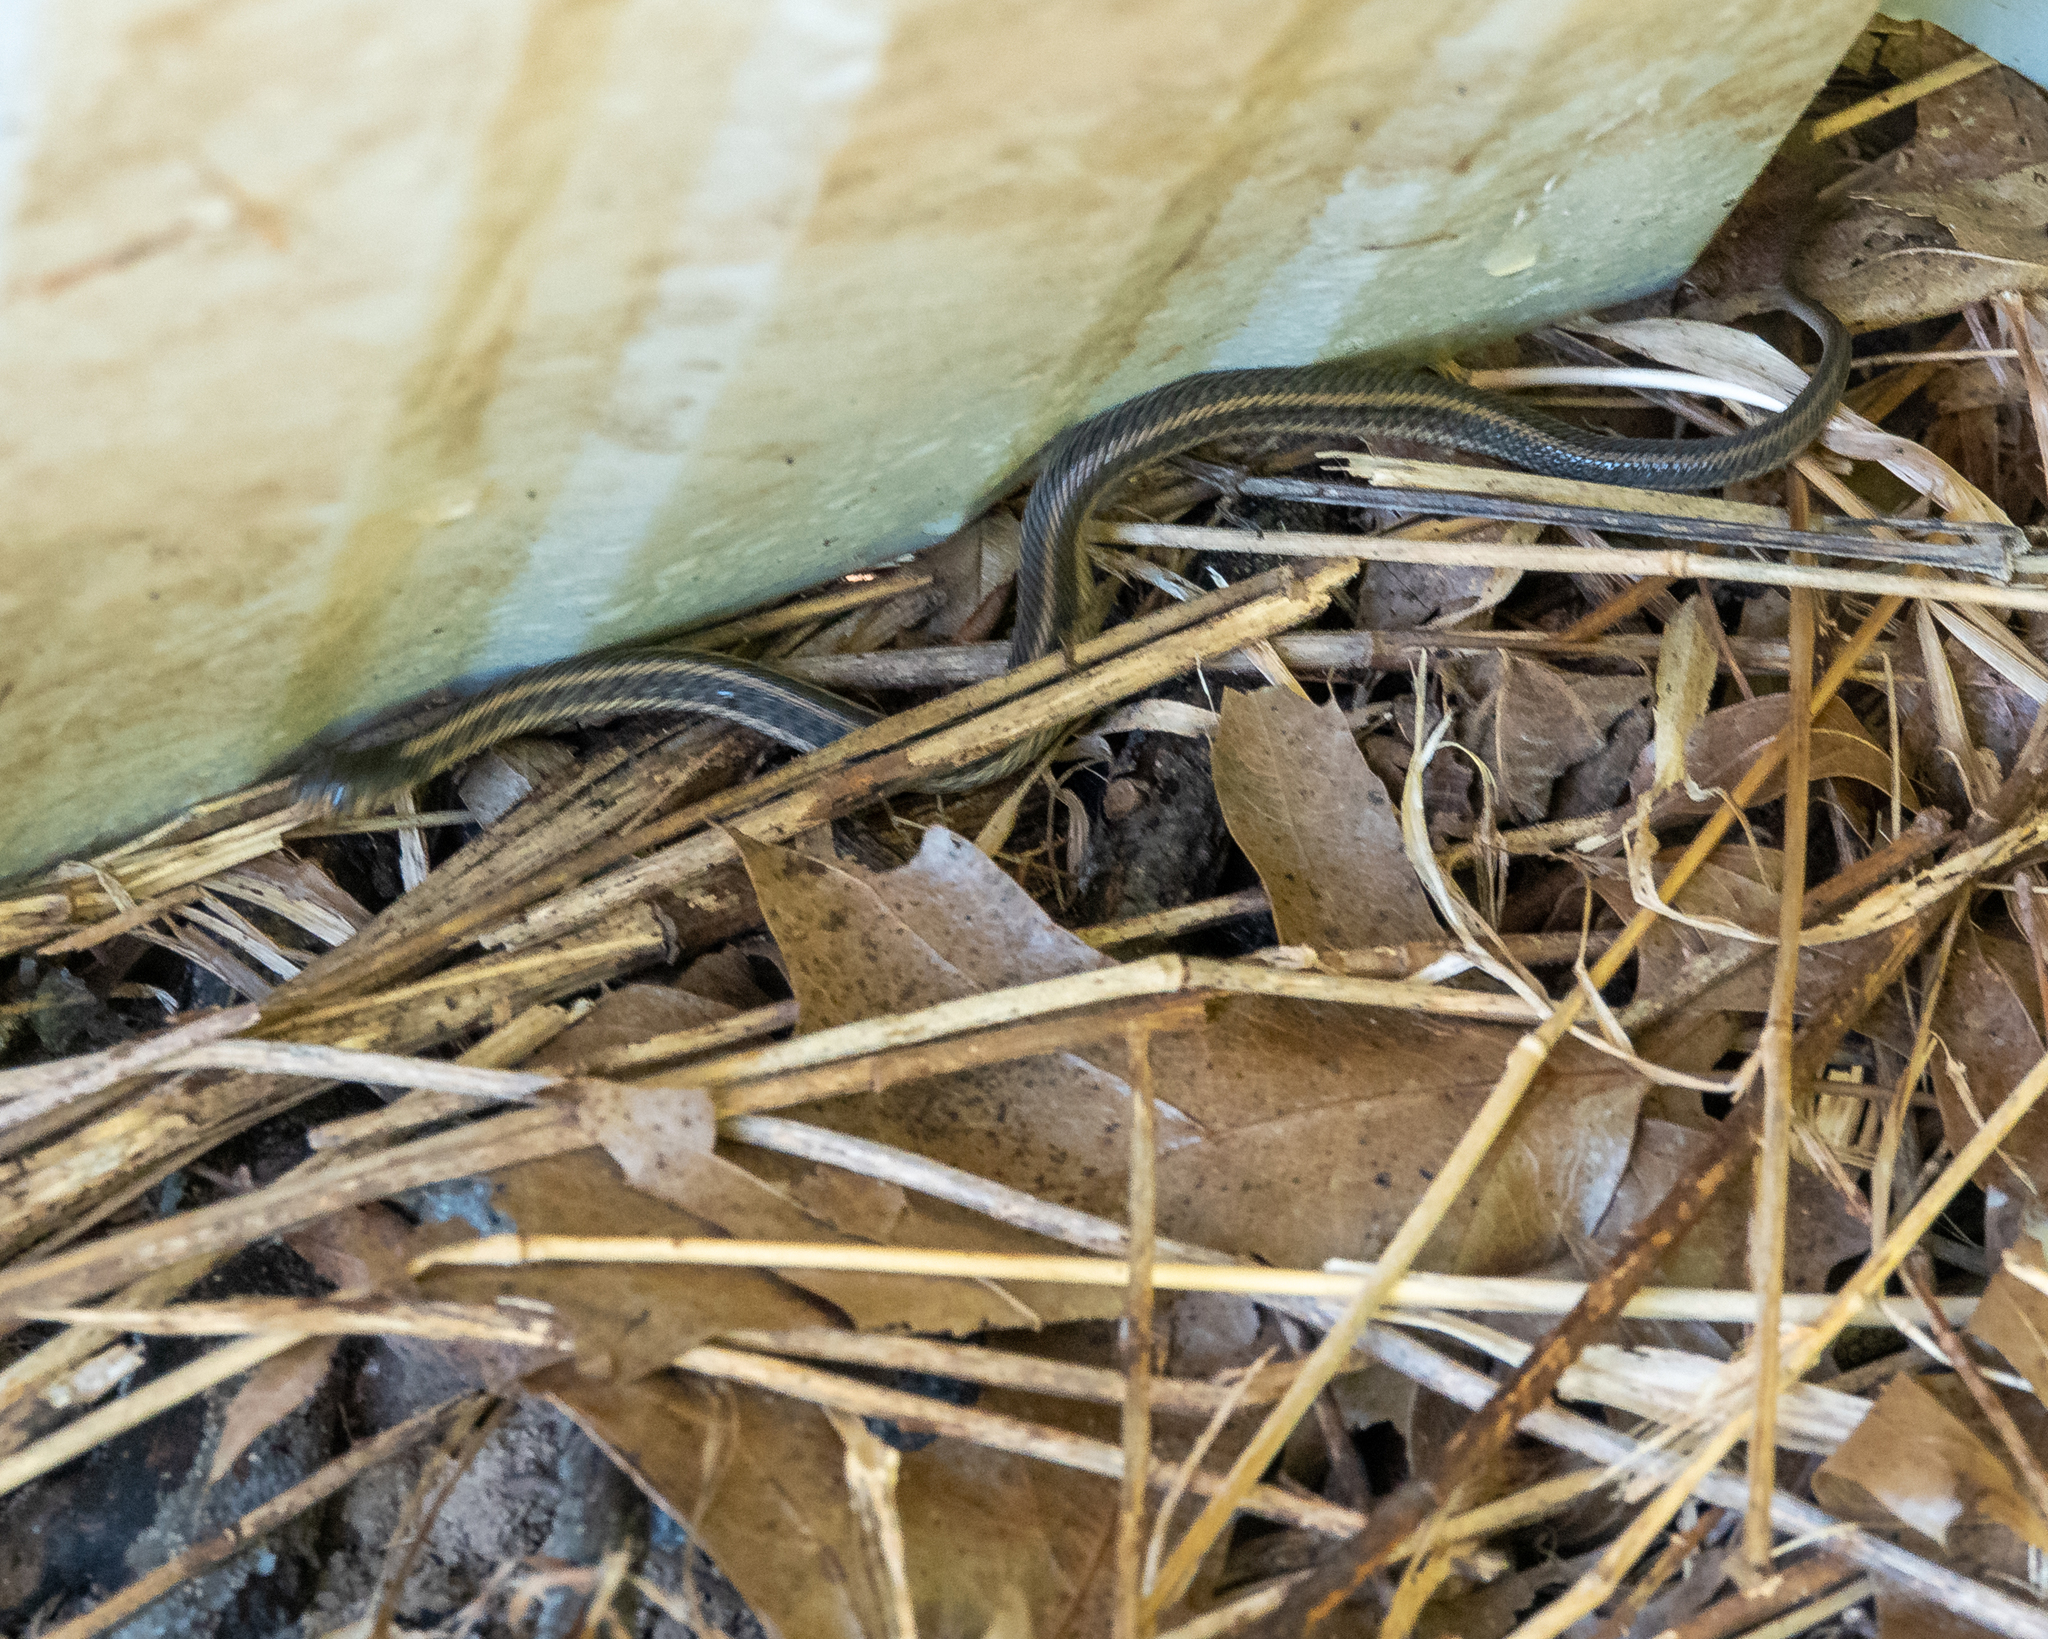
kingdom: Animalia
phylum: Chordata
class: Squamata
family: Colubridae
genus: Thamnophis
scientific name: Thamnophis sirtalis
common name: Common garter snake
